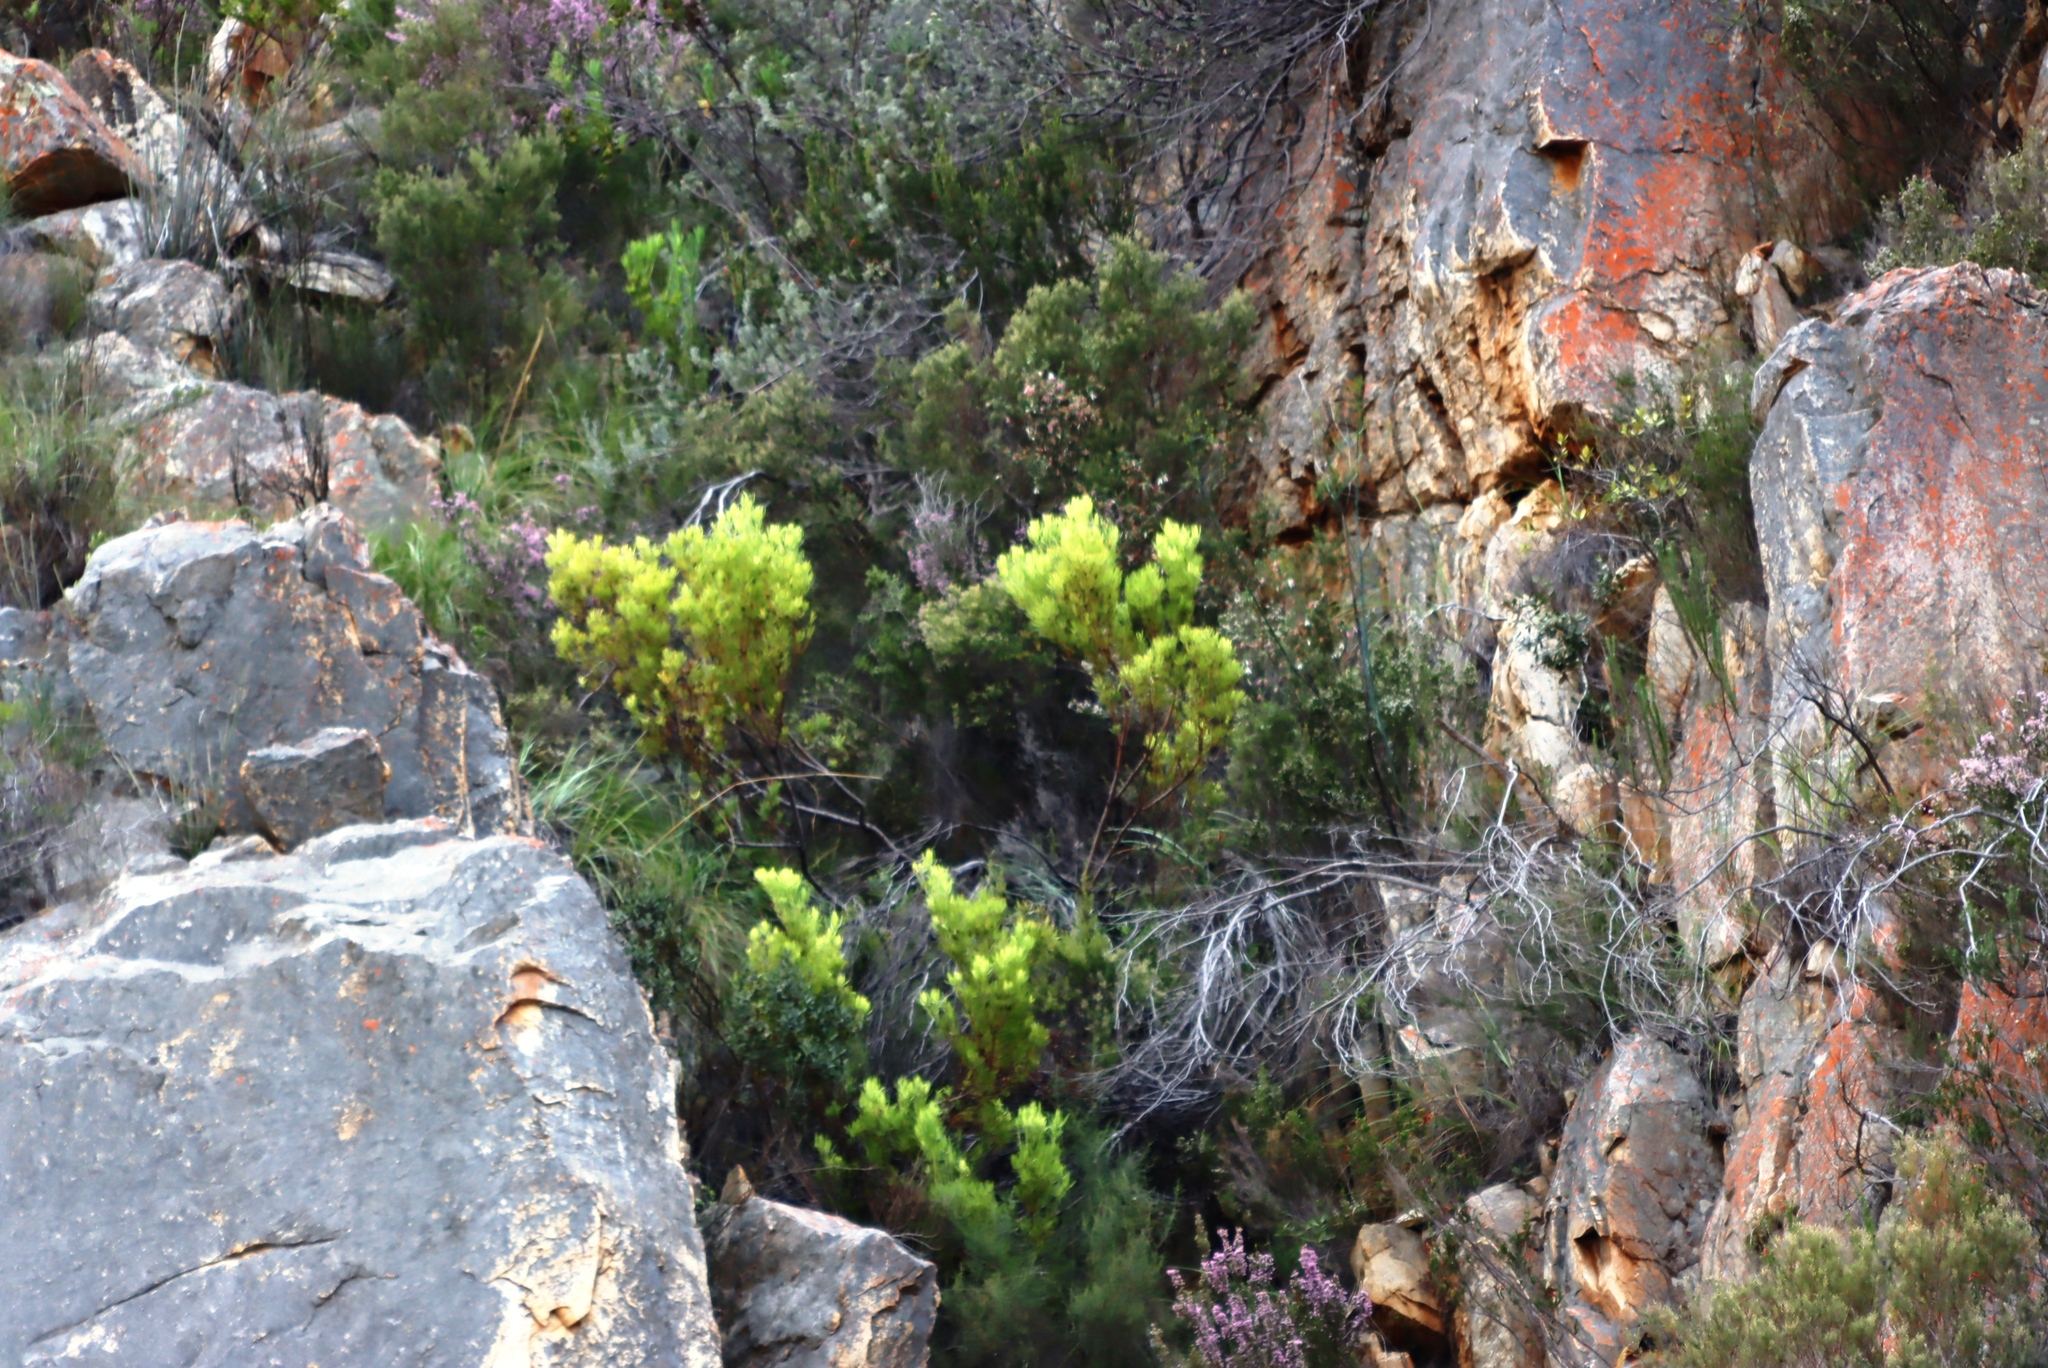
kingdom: Plantae
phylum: Tracheophyta
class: Magnoliopsida
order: Proteales
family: Proteaceae
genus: Leucadendron
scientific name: Leucadendron salignum
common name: Common sunshine conebush
